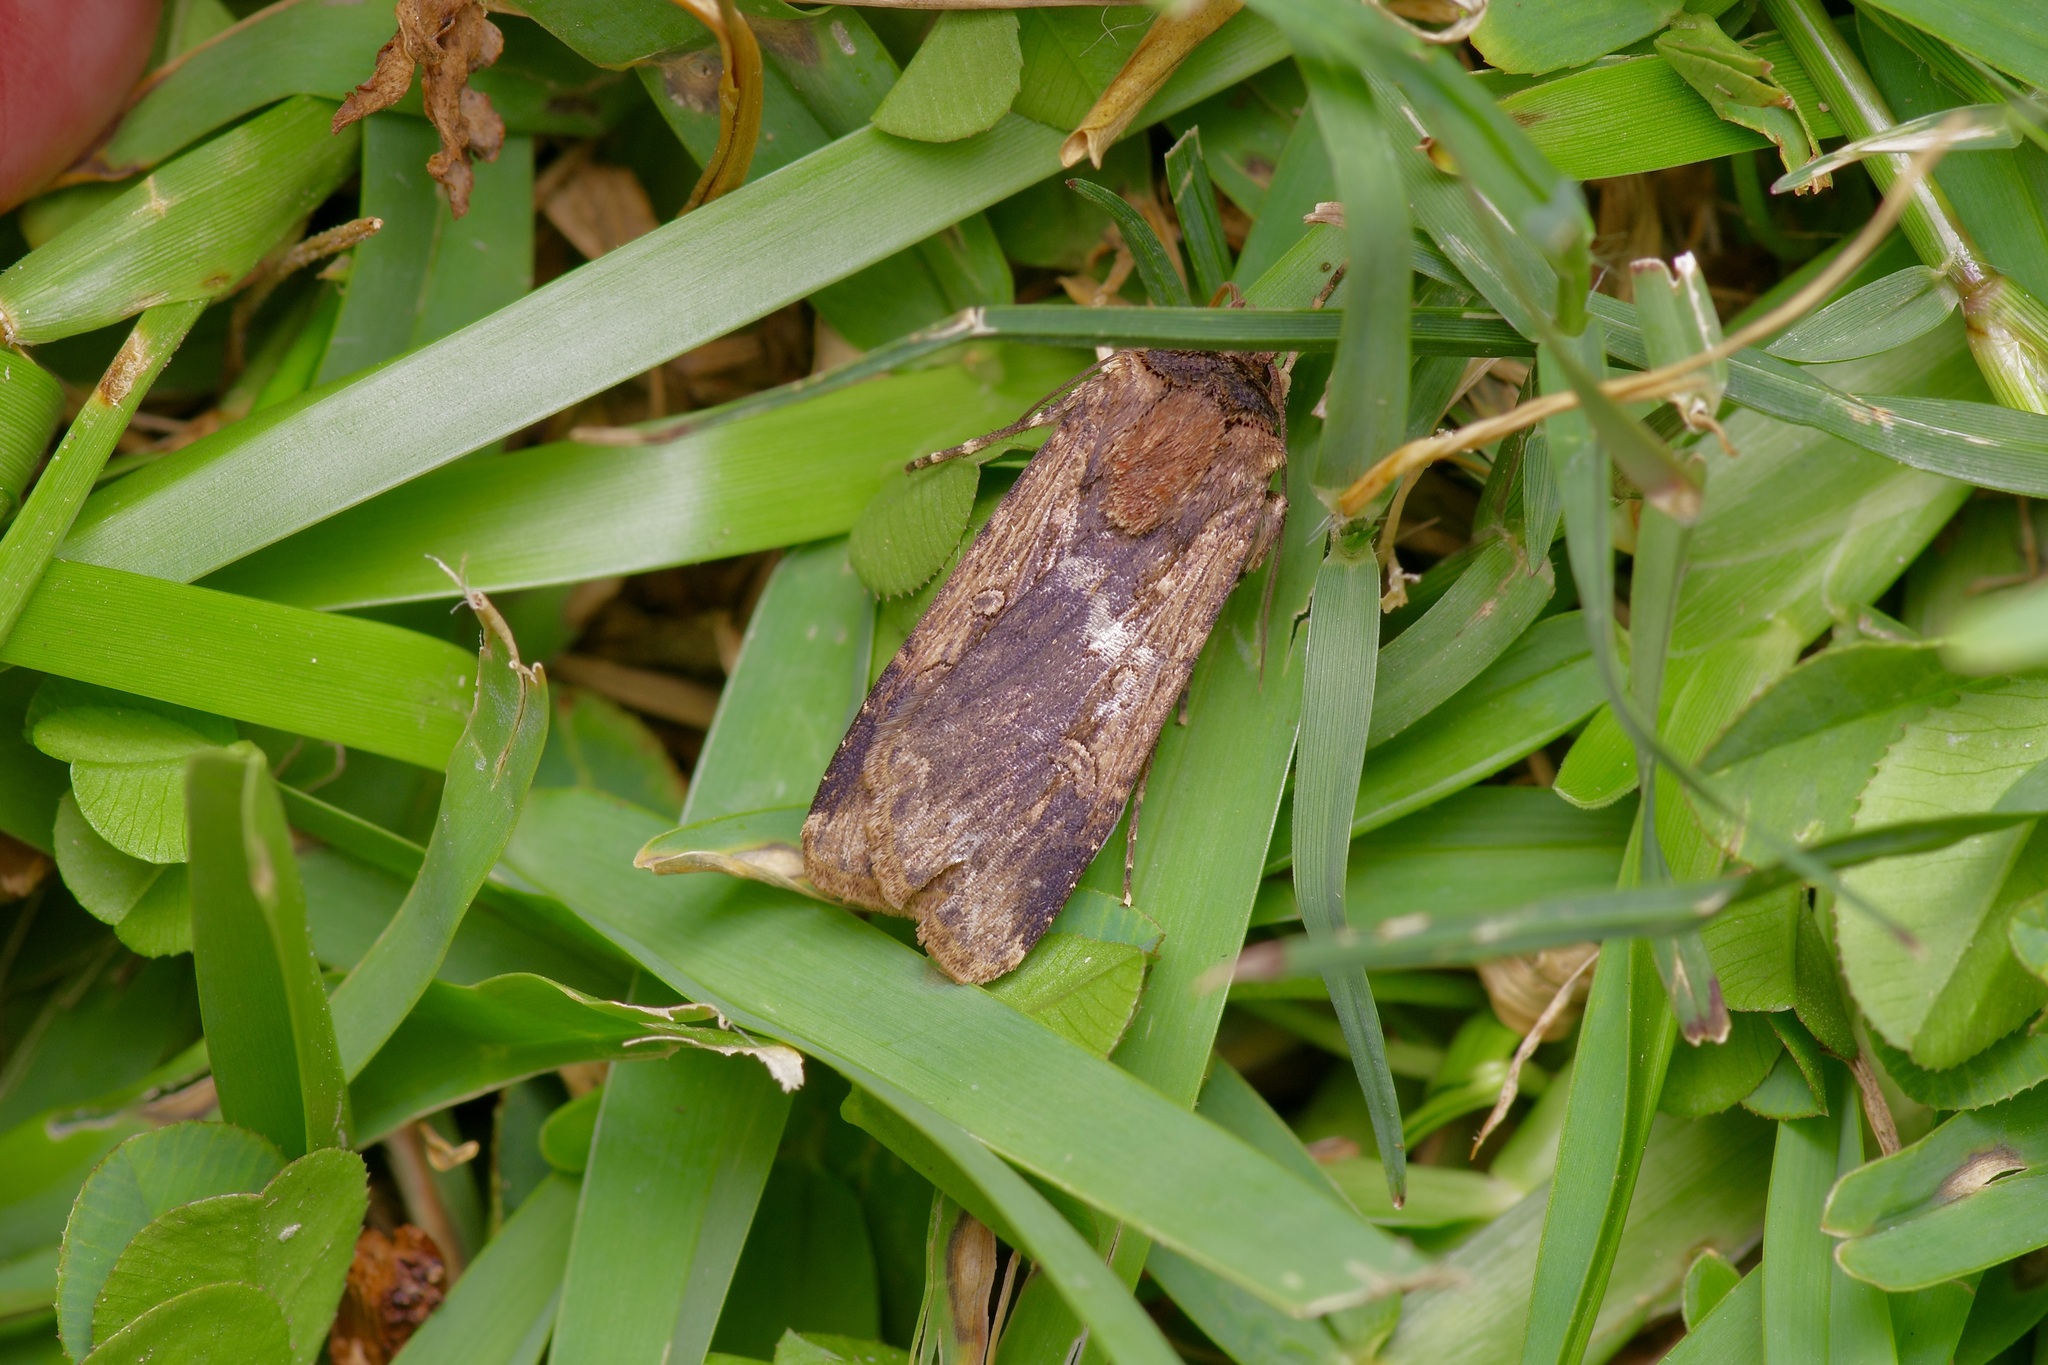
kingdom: Animalia
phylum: Arthropoda
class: Insecta
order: Lepidoptera
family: Noctuidae
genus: Feltia
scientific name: Feltia subterranea
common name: Granulate cutworm
